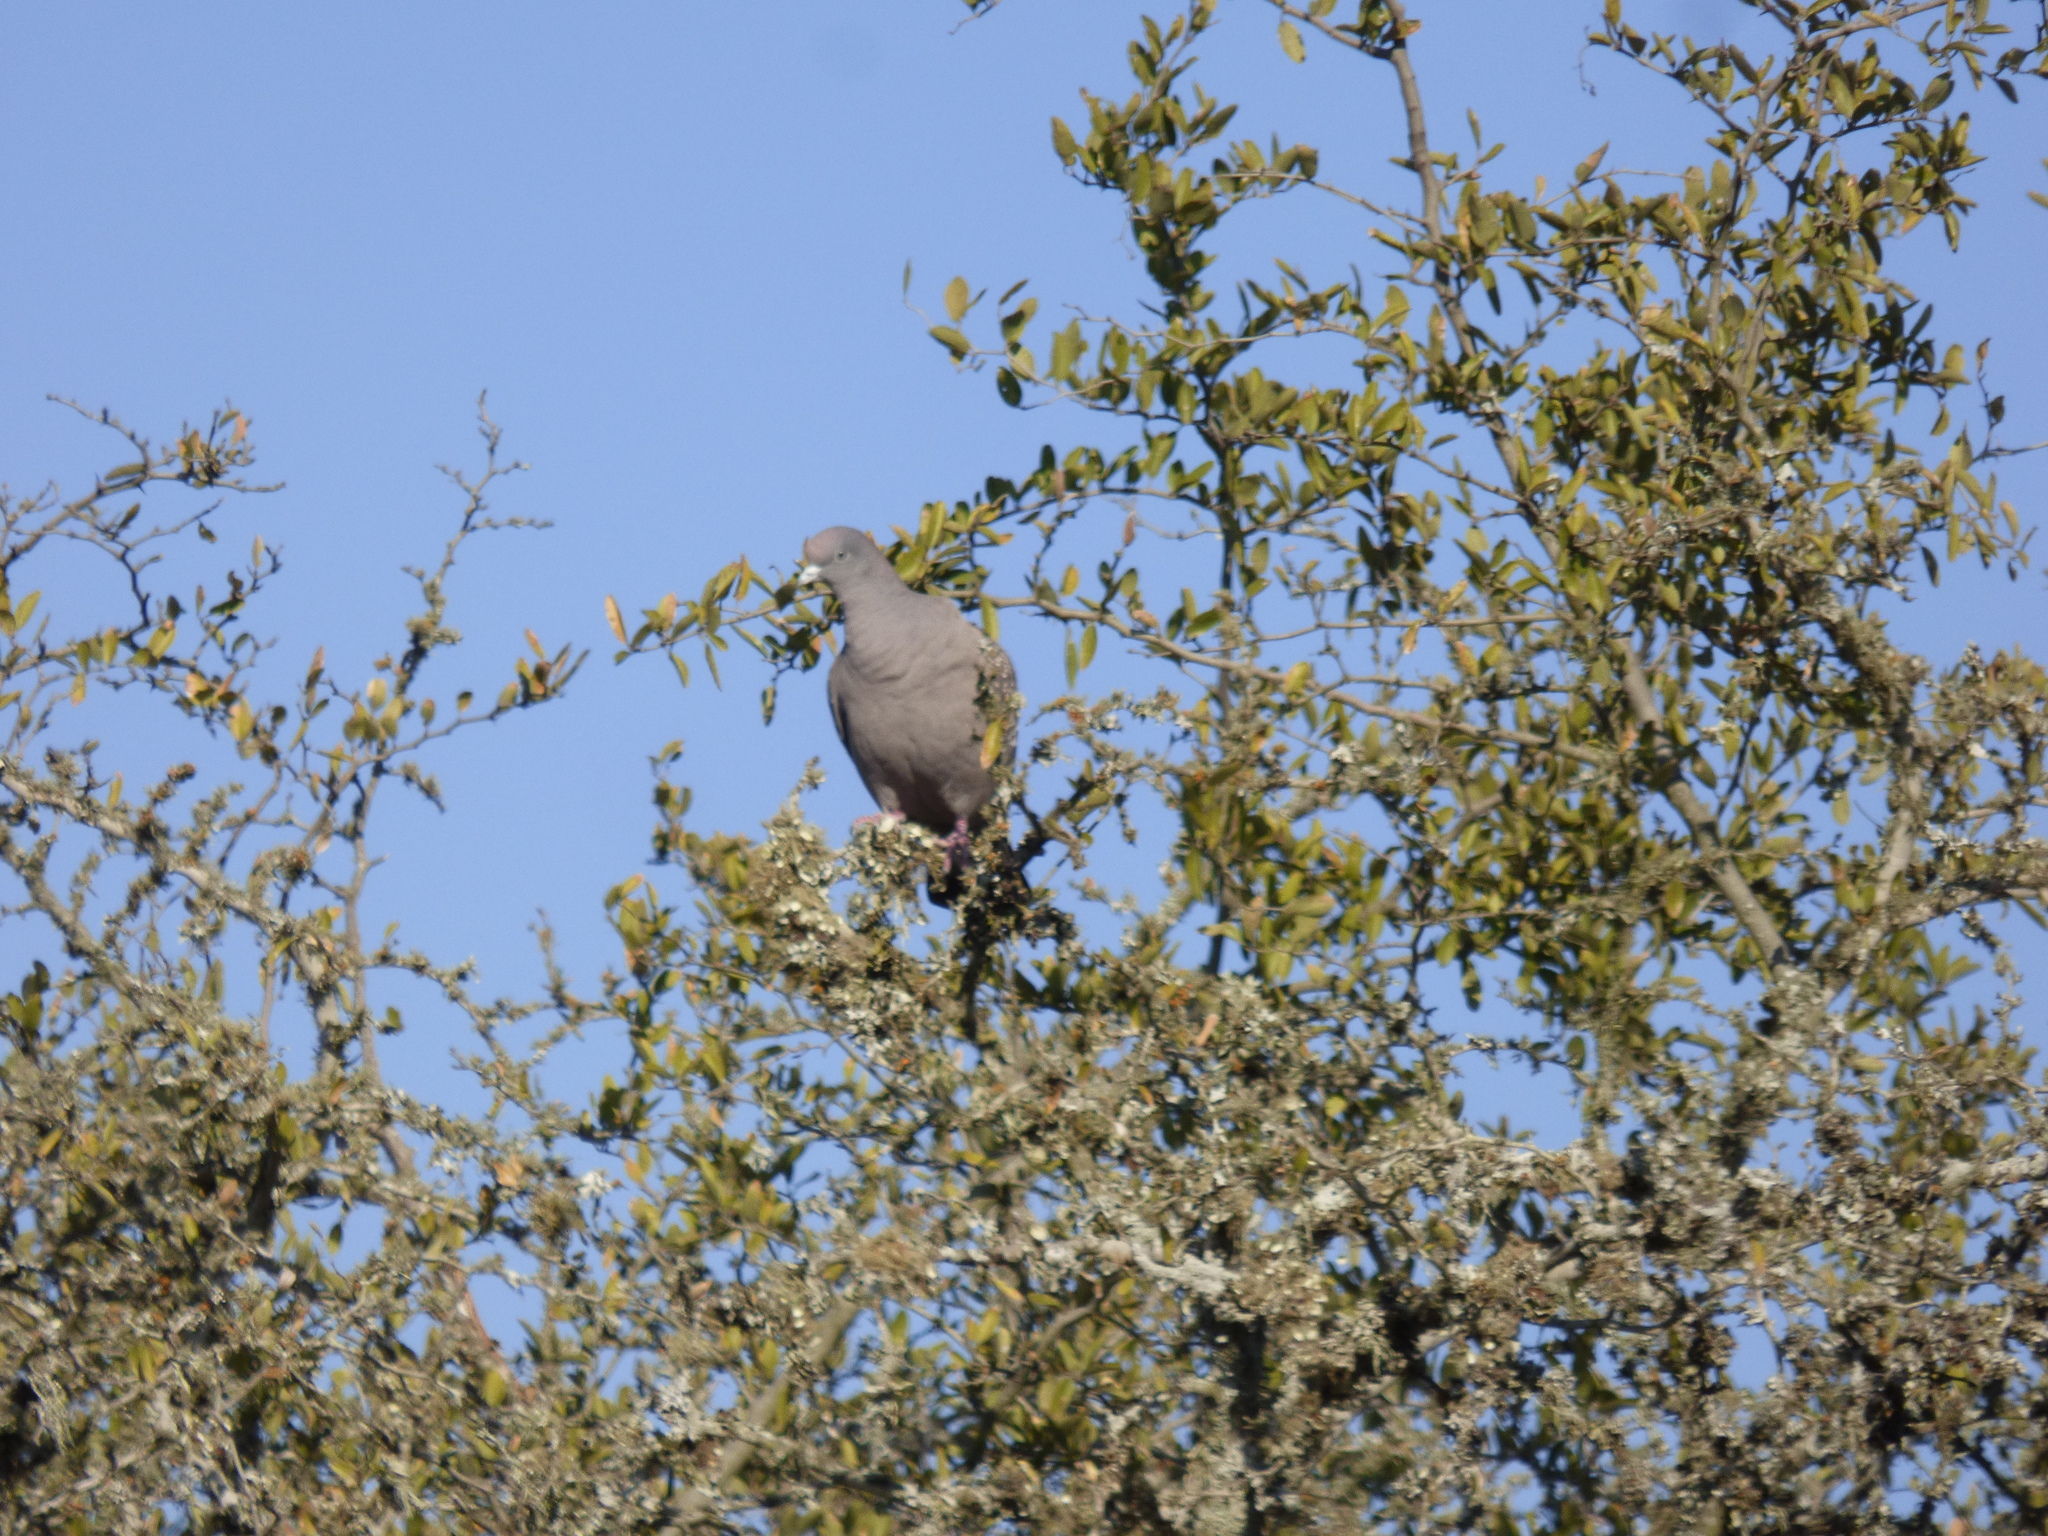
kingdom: Animalia
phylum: Chordata
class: Aves
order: Columbiformes
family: Columbidae
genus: Patagioenas
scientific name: Patagioenas maculosa
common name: Spot-winged pigeon
